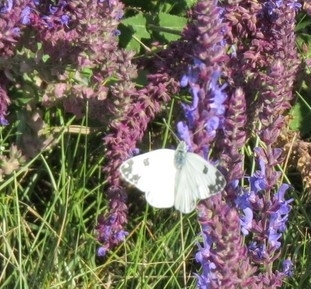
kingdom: Animalia
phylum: Arthropoda
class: Insecta
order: Lepidoptera
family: Pieridae
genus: Pontia
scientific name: Pontia edusa
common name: Eastern bath white
